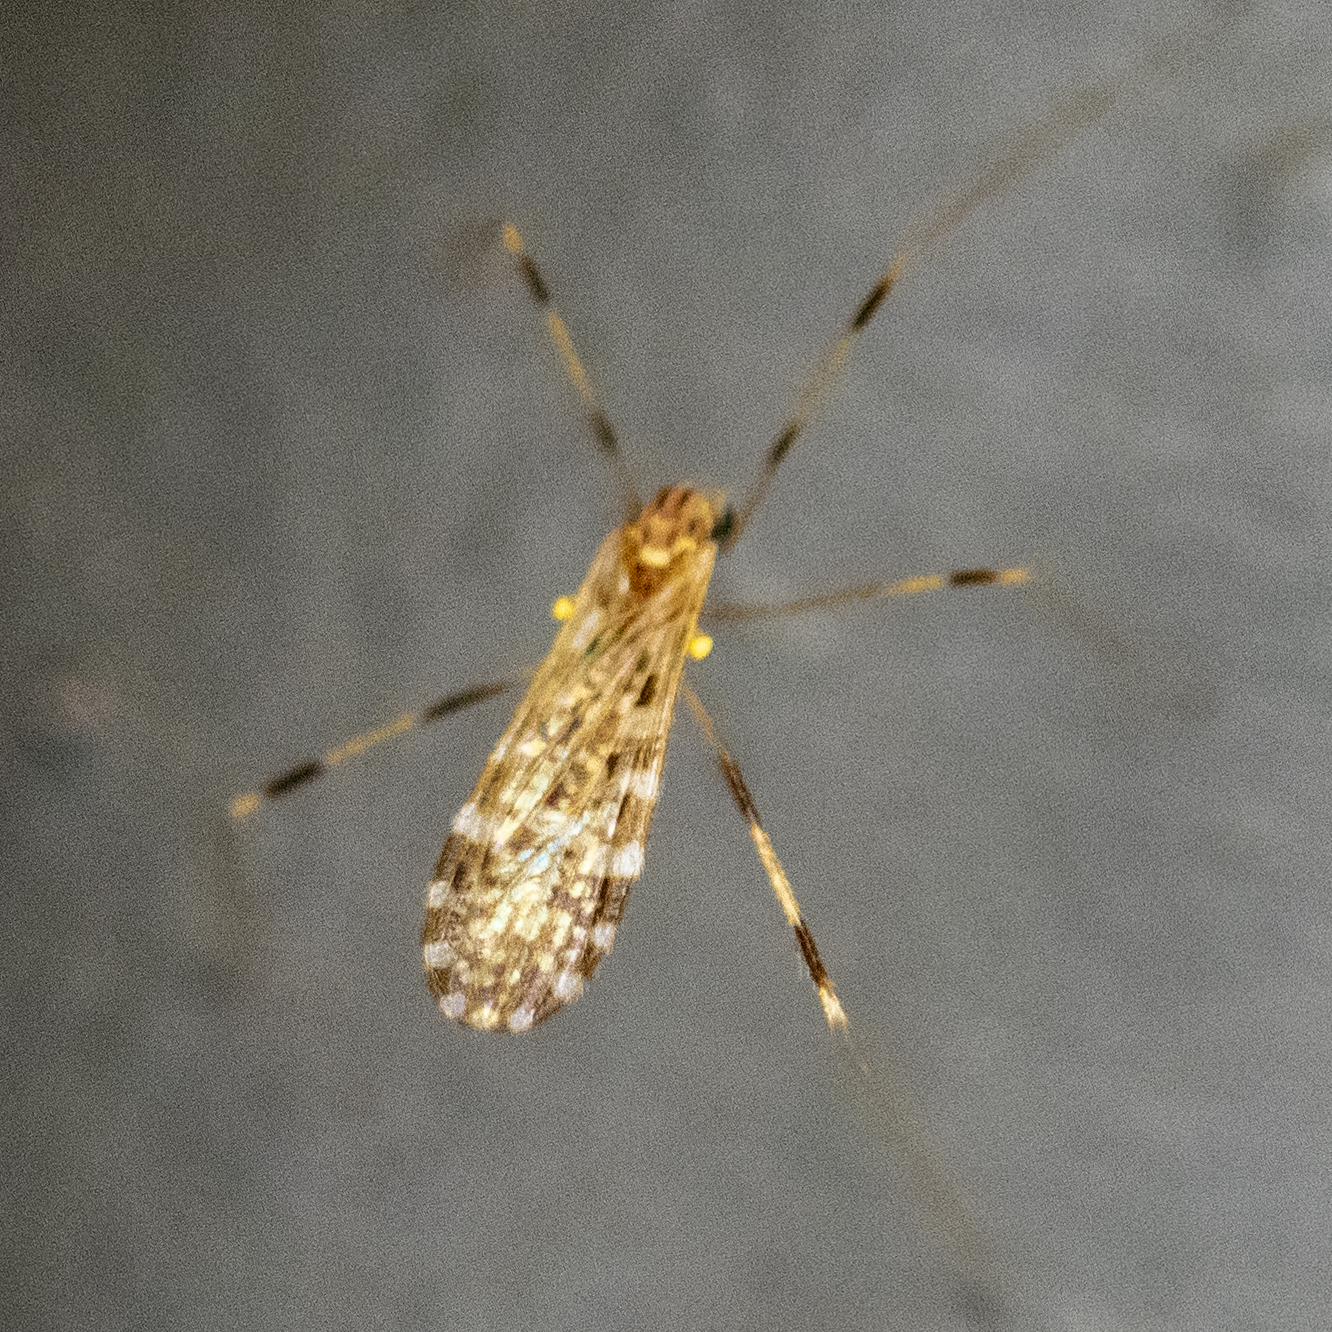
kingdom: Animalia
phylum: Arthropoda
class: Insecta
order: Diptera
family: Limoniidae
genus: Erioptera
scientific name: Erioptera caliptera
